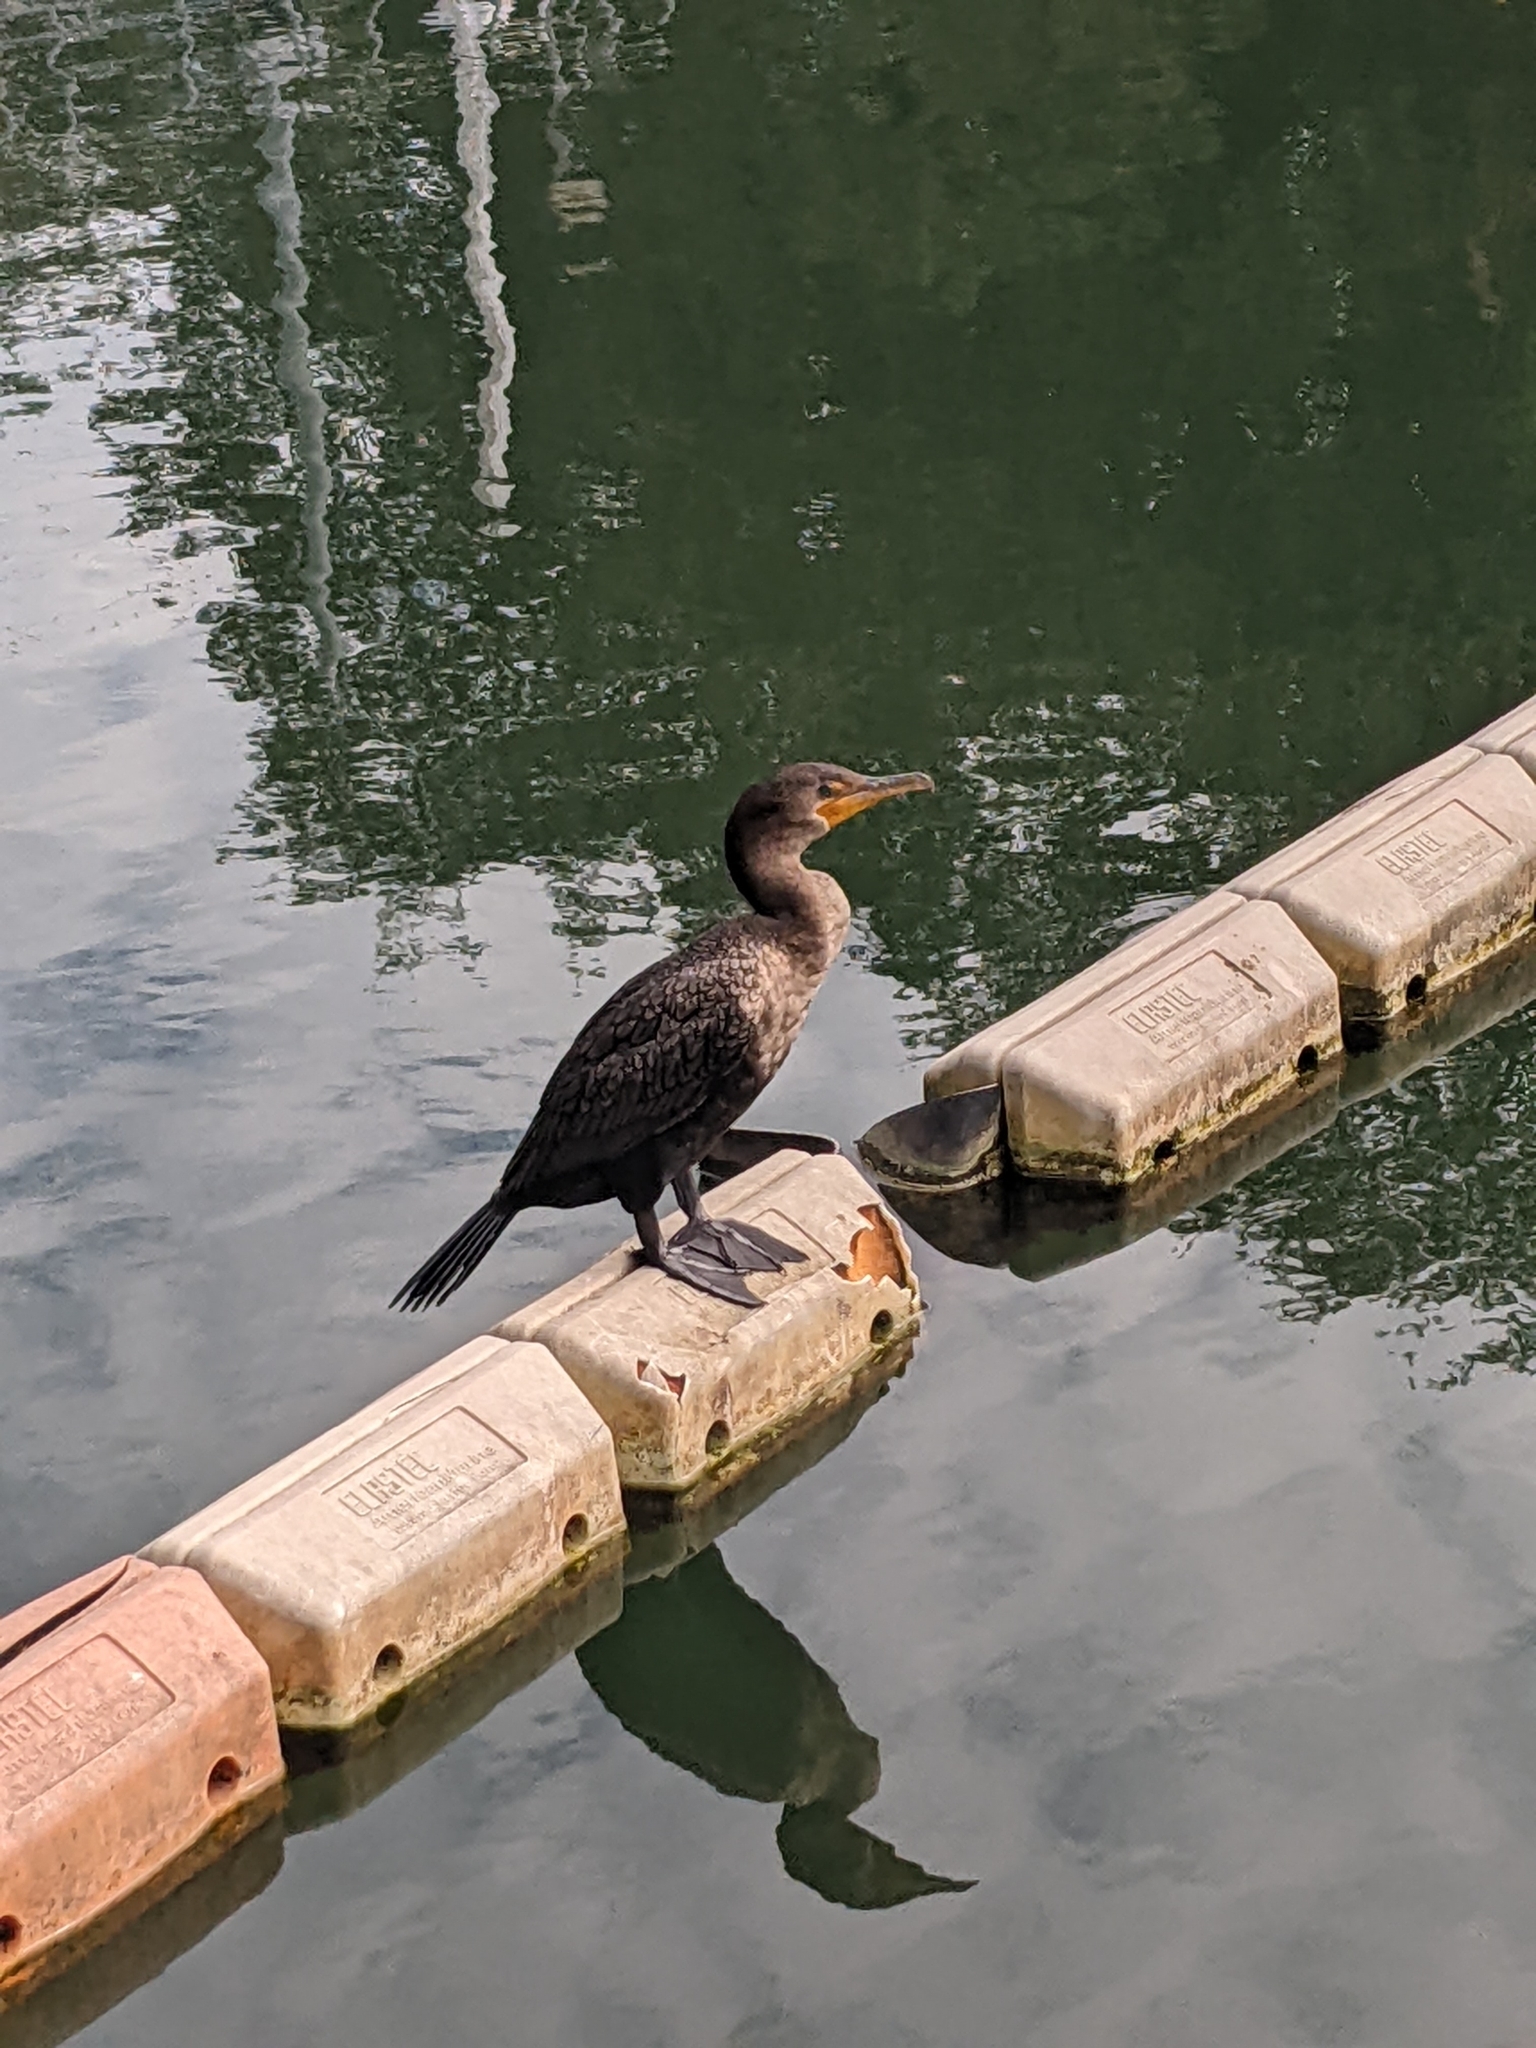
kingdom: Animalia
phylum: Chordata
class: Aves
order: Suliformes
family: Phalacrocoracidae
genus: Phalacrocorax
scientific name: Phalacrocorax auritus
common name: Double-crested cormorant
